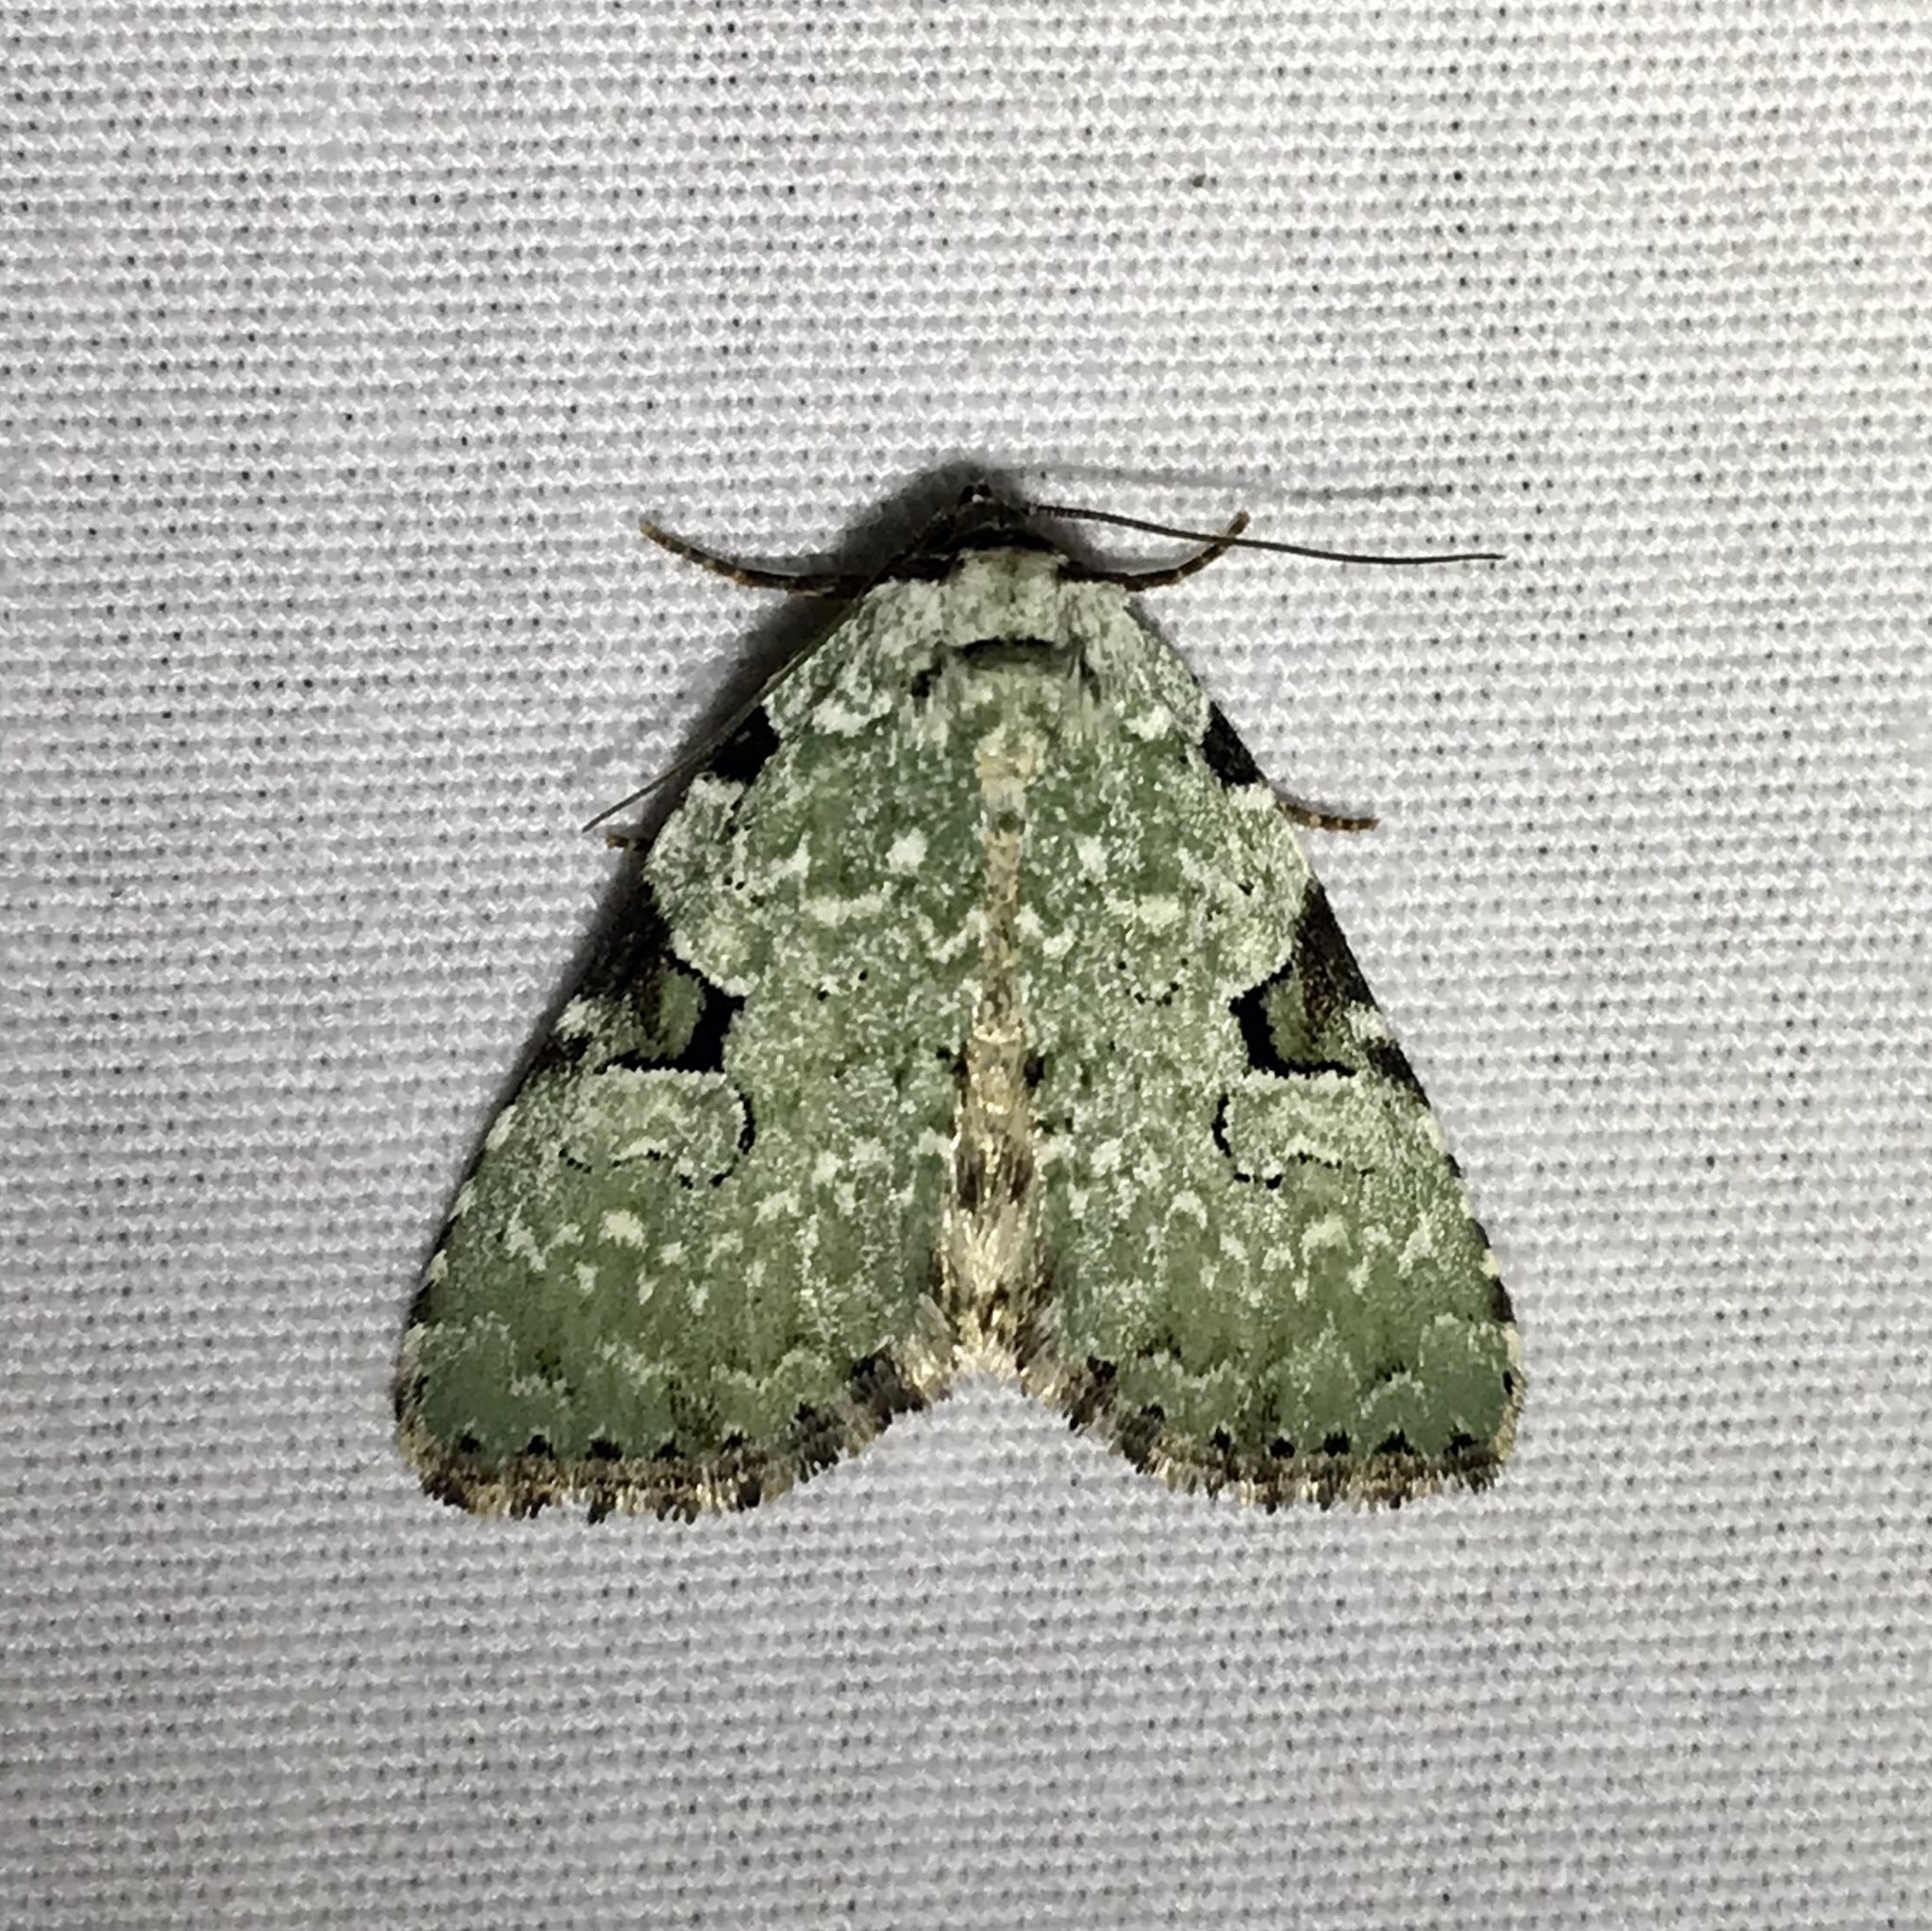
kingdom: Animalia
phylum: Arthropoda
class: Insecta
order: Lepidoptera
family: Noctuidae
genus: Leuconycta
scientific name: Leuconycta diphteroides
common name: Green leuconycta moth
